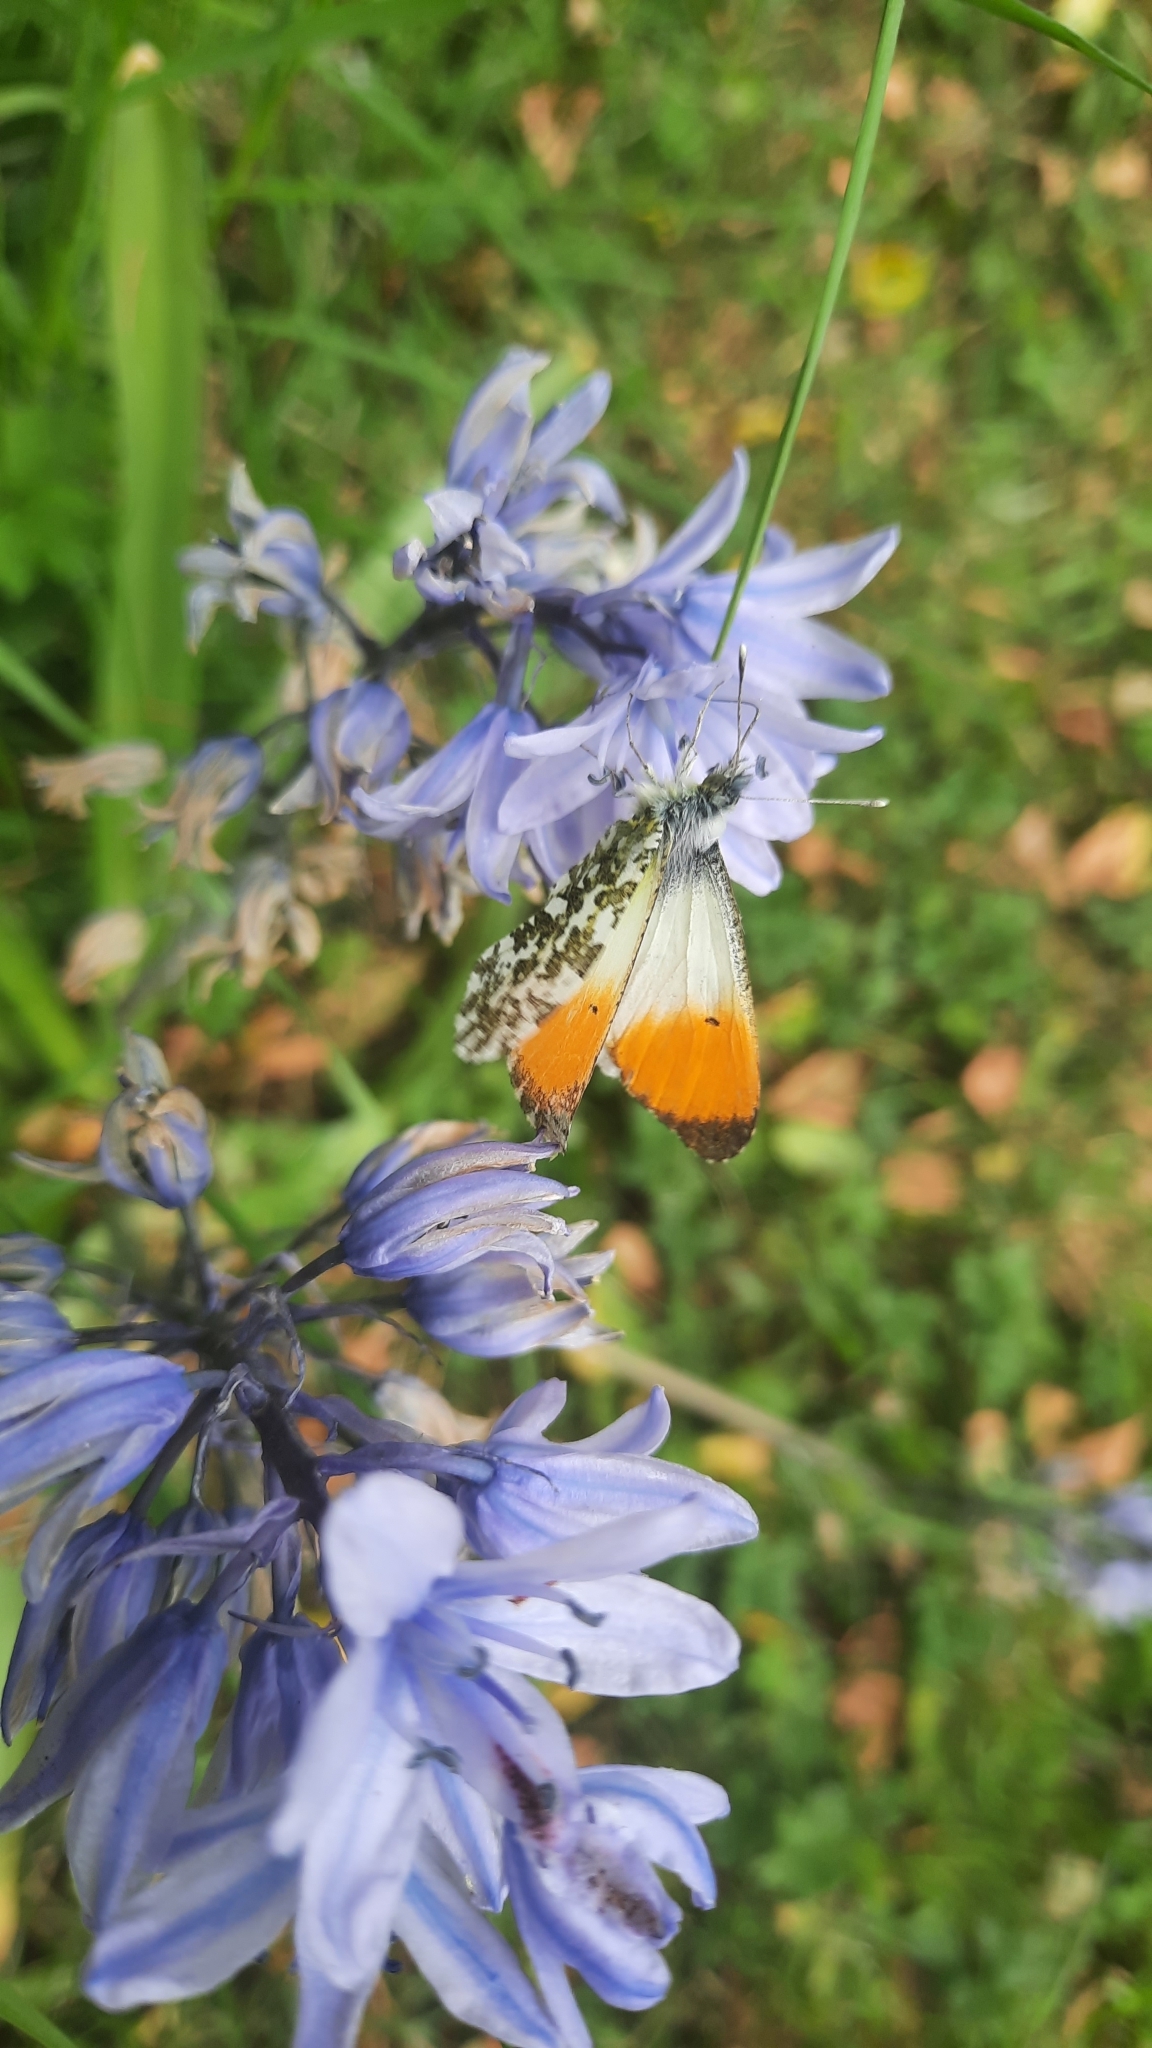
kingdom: Animalia
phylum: Arthropoda
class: Insecta
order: Lepidoptera
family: Pieridae
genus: Anthocharis
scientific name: Anthocharis cardamines
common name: Orange-tip
